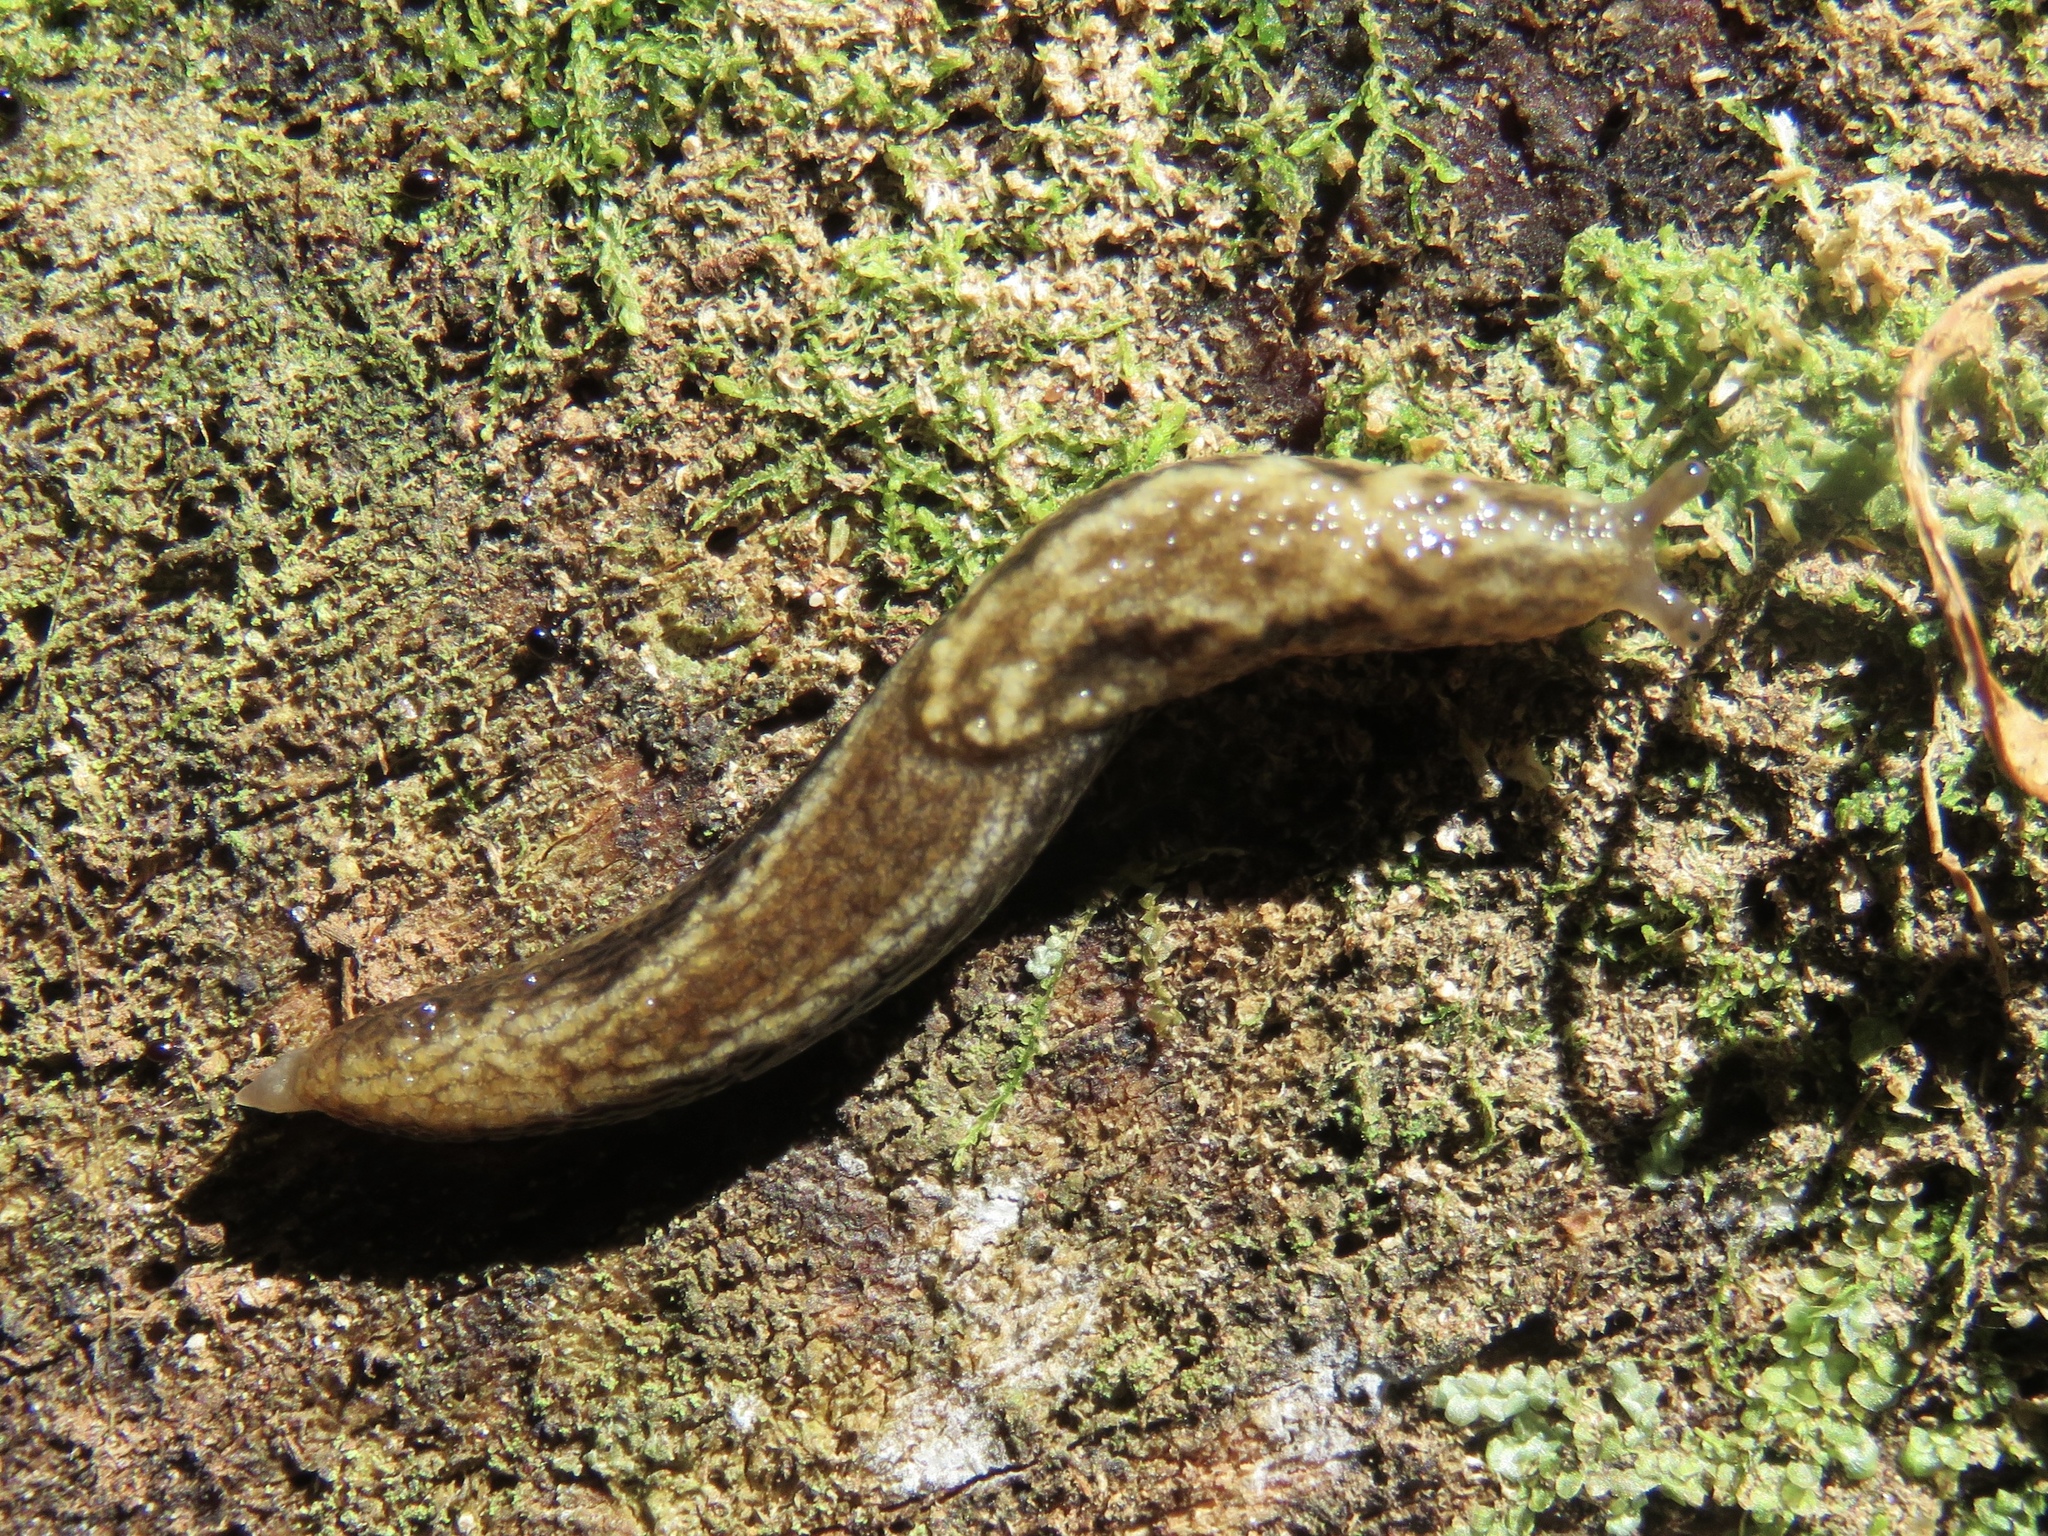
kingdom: Animalia
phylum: Mollusca
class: Gastropoda
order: Stylommatophora
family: Ariolimacidae
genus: Prophysaon
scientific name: Prophysaon vanattae
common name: Scarletback taildropper
